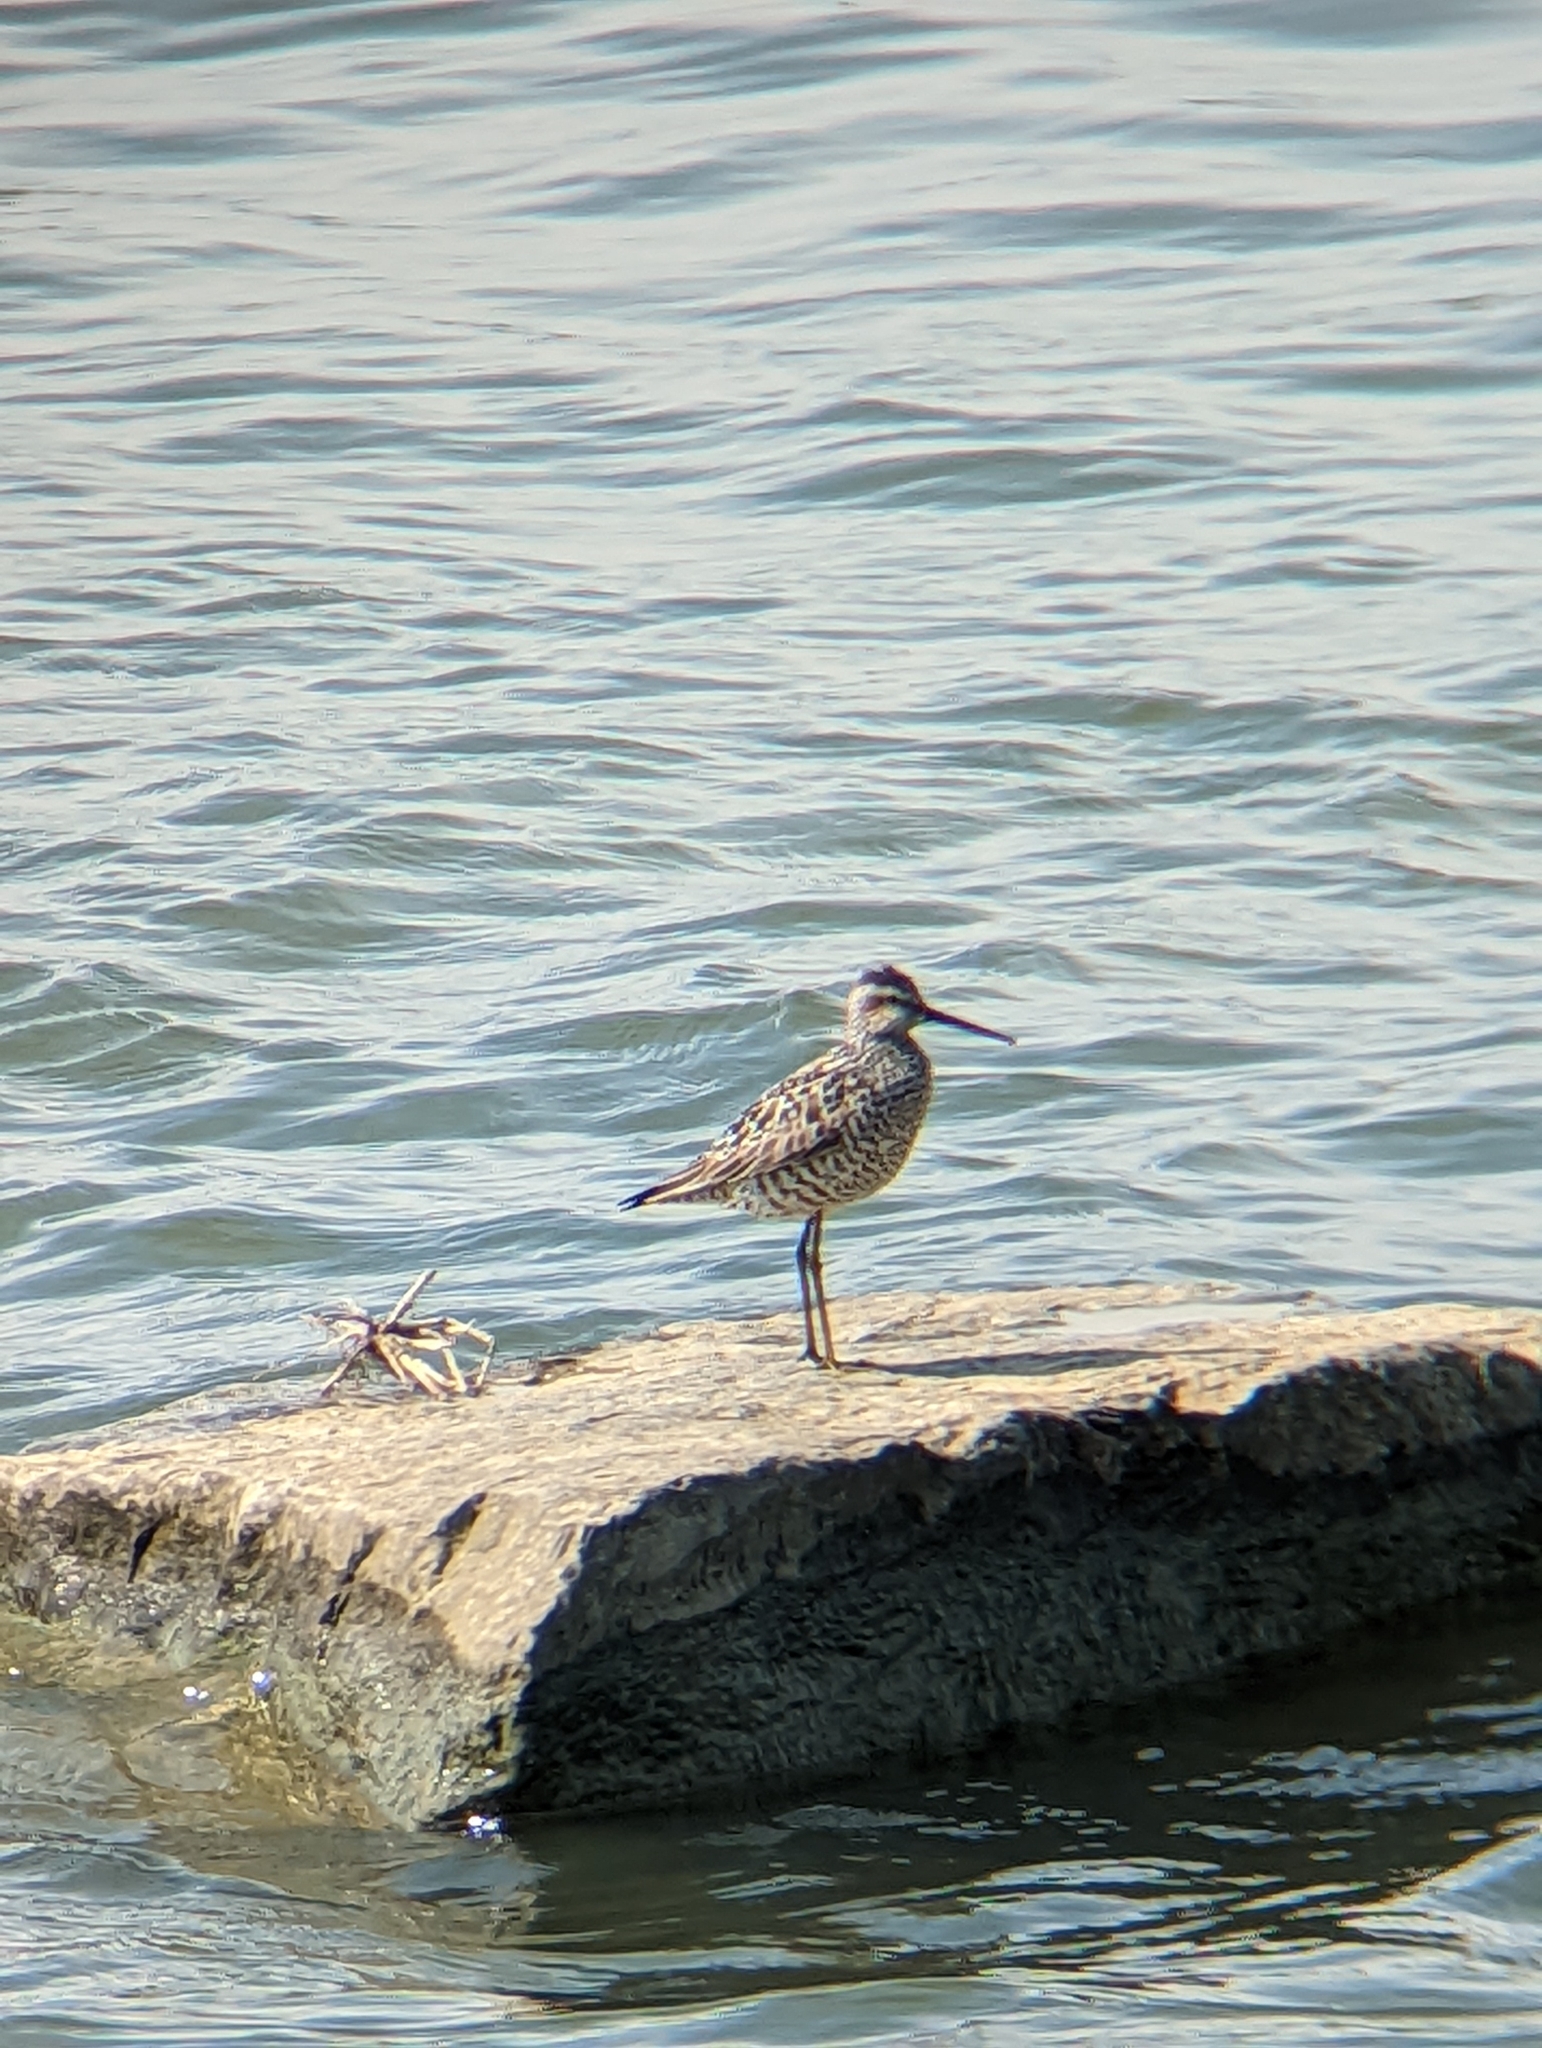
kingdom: Animalia
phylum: Chordata
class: Aves
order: Charadriiformes
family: Scolopacidae
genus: Calidris
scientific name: Calidris himantopus
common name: Stilt sandpiper
